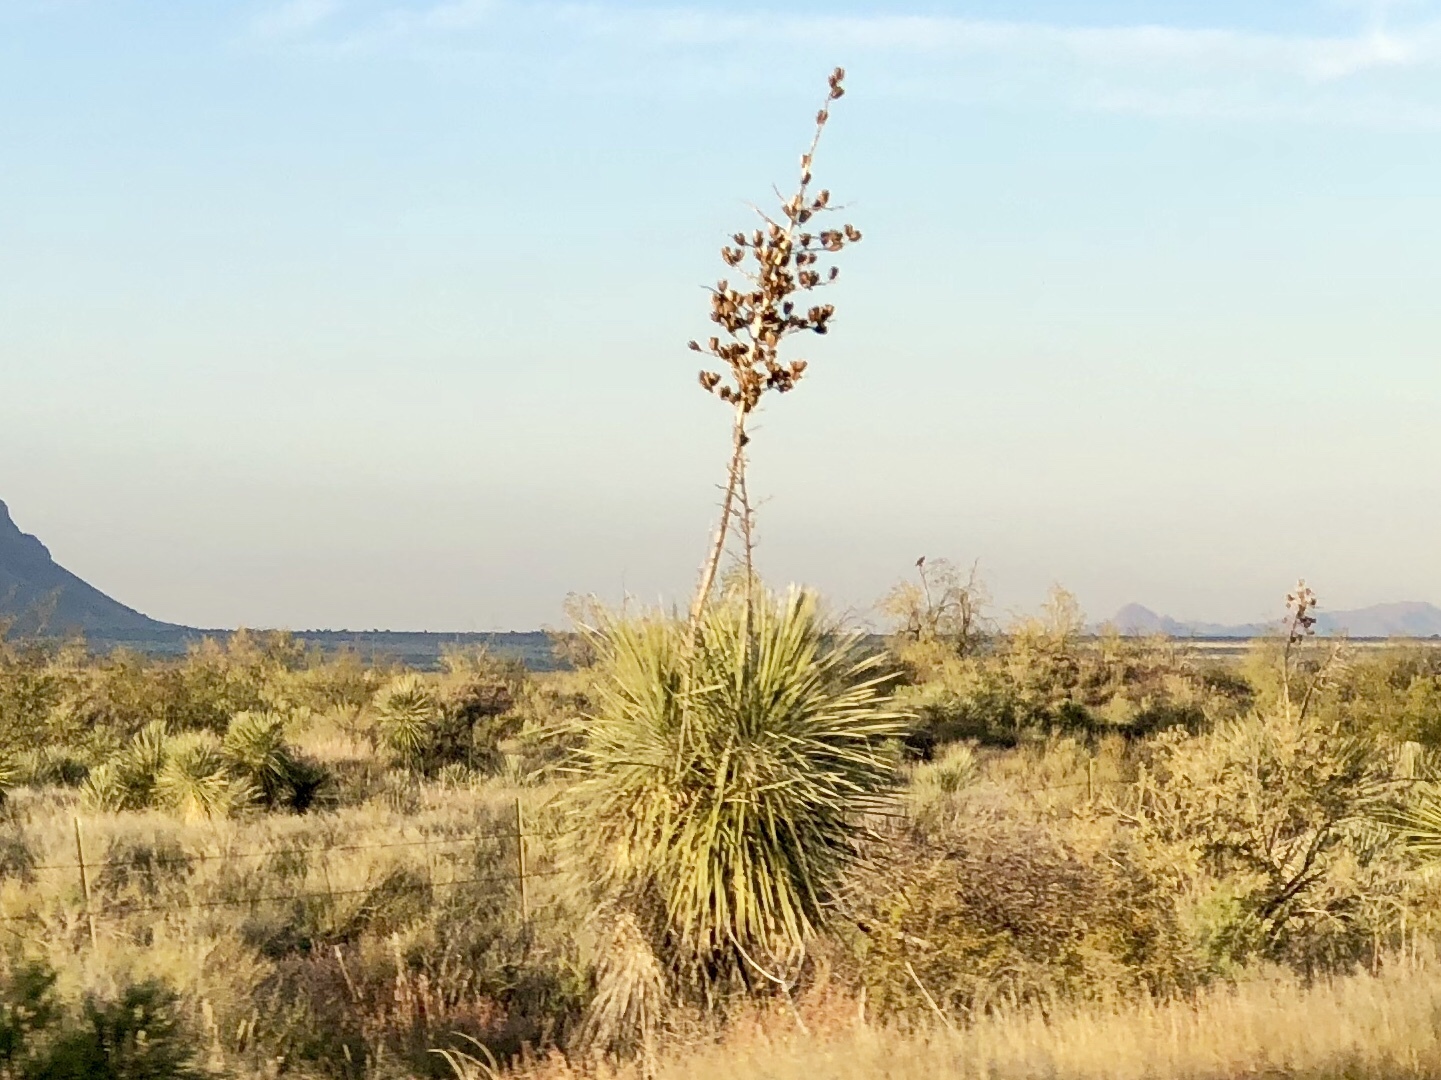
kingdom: Plantae
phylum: Tracheophyta
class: Liliopsida
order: Asparagales
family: Asparagaceae
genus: Yucca
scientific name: Yucca elata
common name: Palmella
